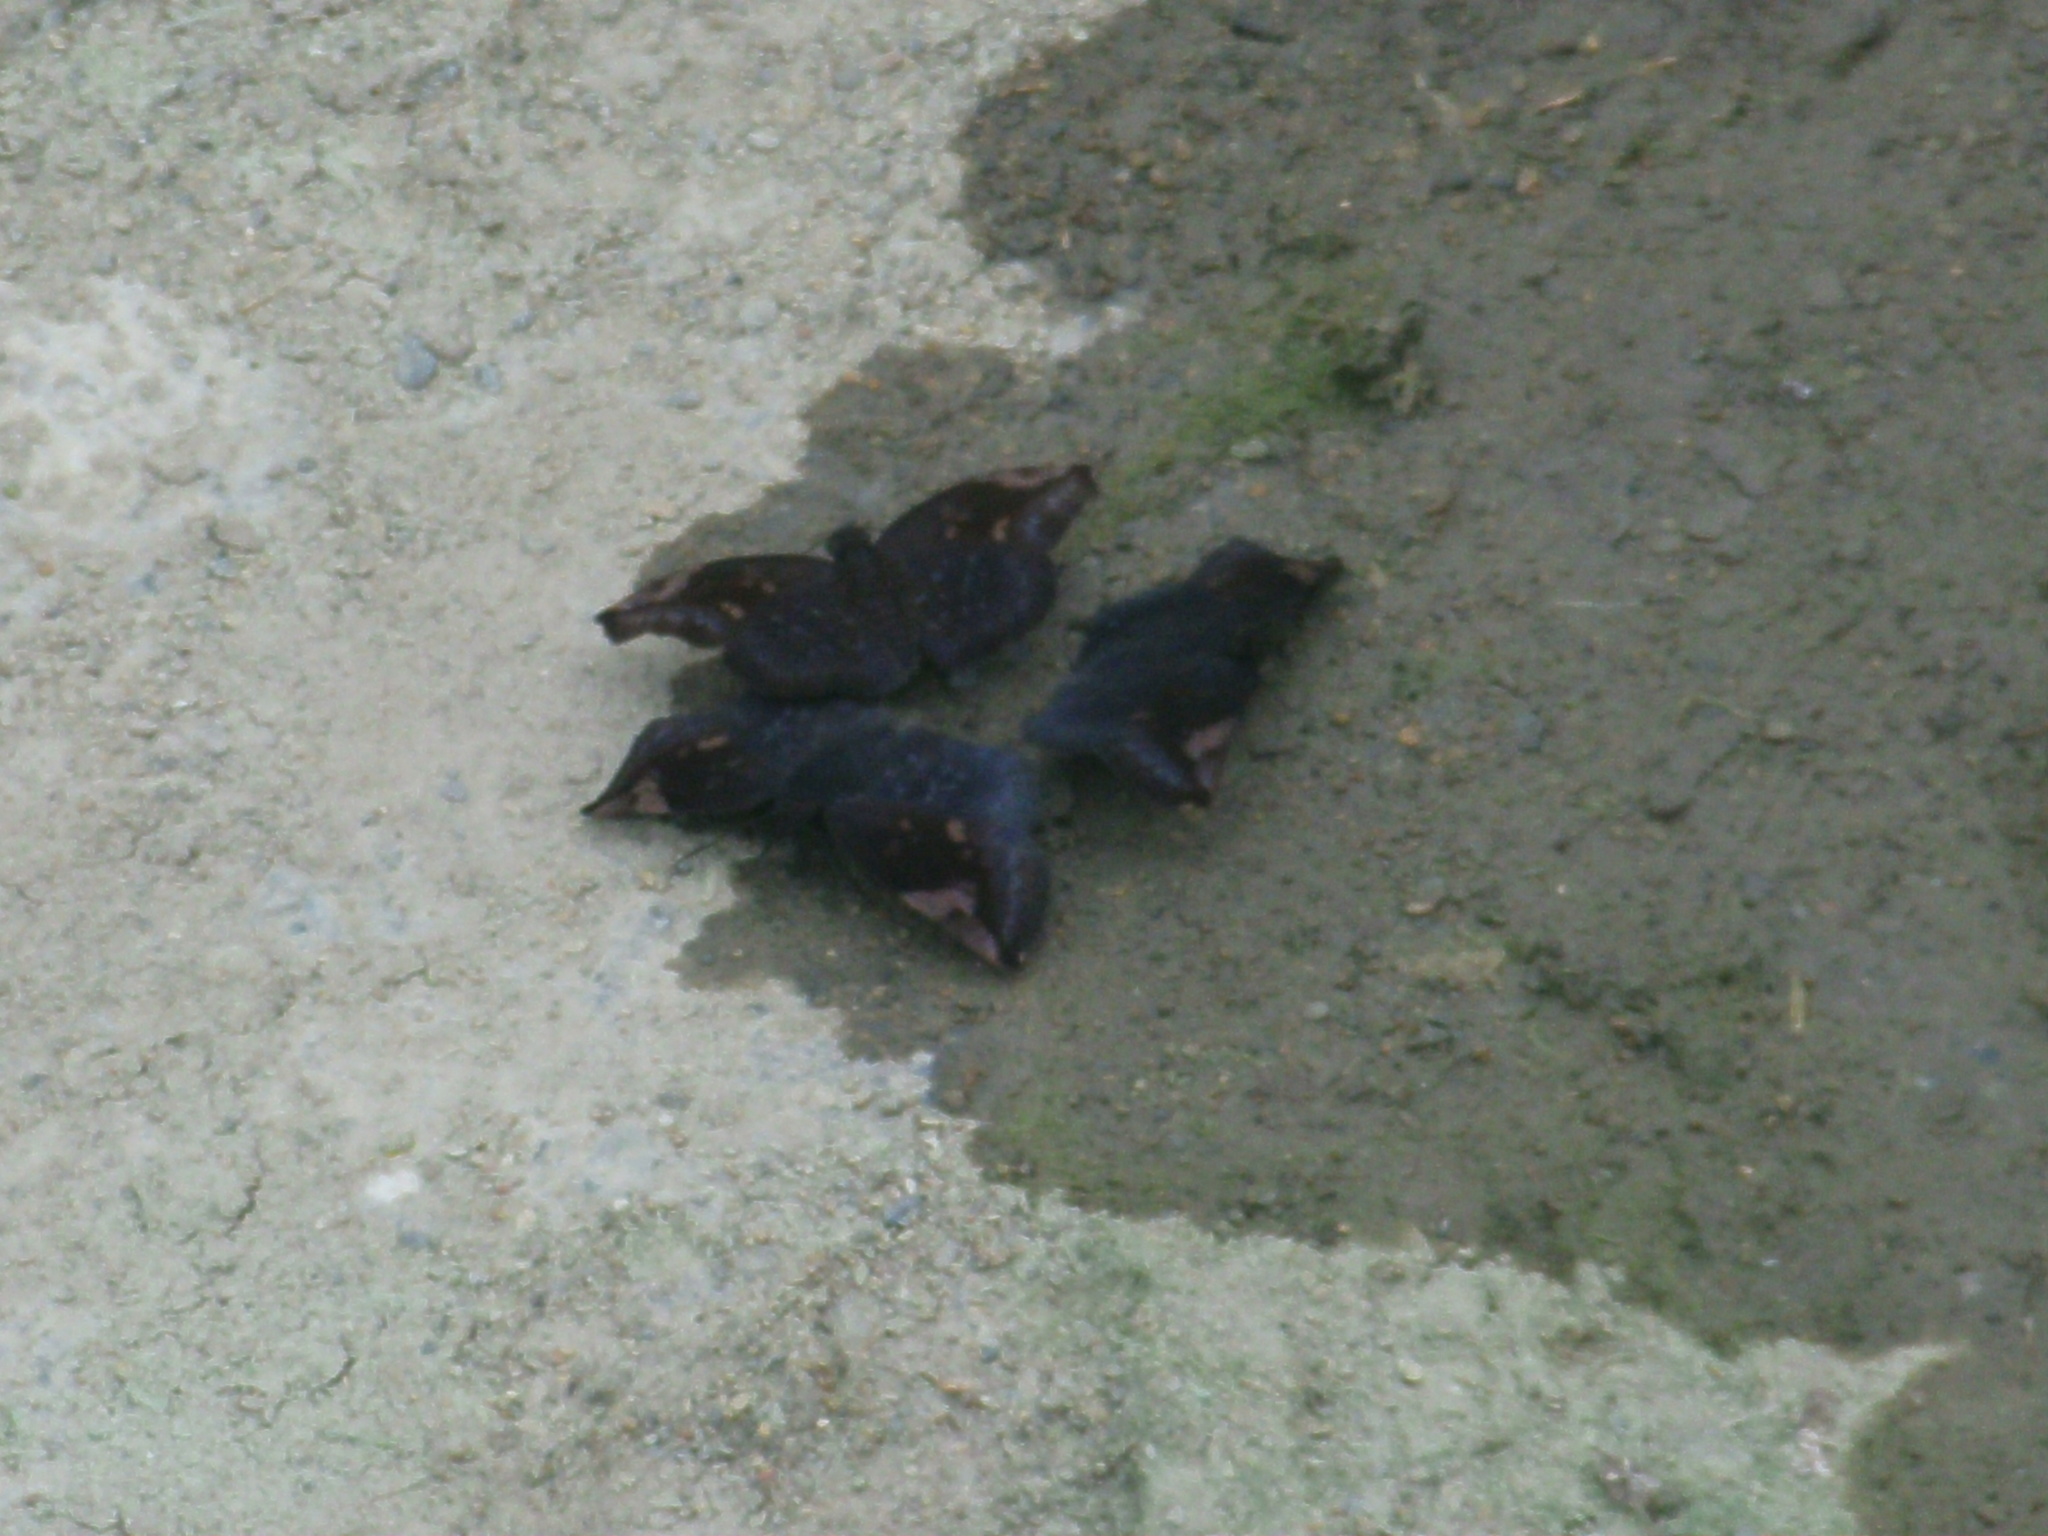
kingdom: Animalia
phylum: Arthropoda
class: Insecta
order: Lepidoptera
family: Hesperiidae
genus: Achlyodes
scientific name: Achlyodes thraso
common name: Sickle-winged skipper
